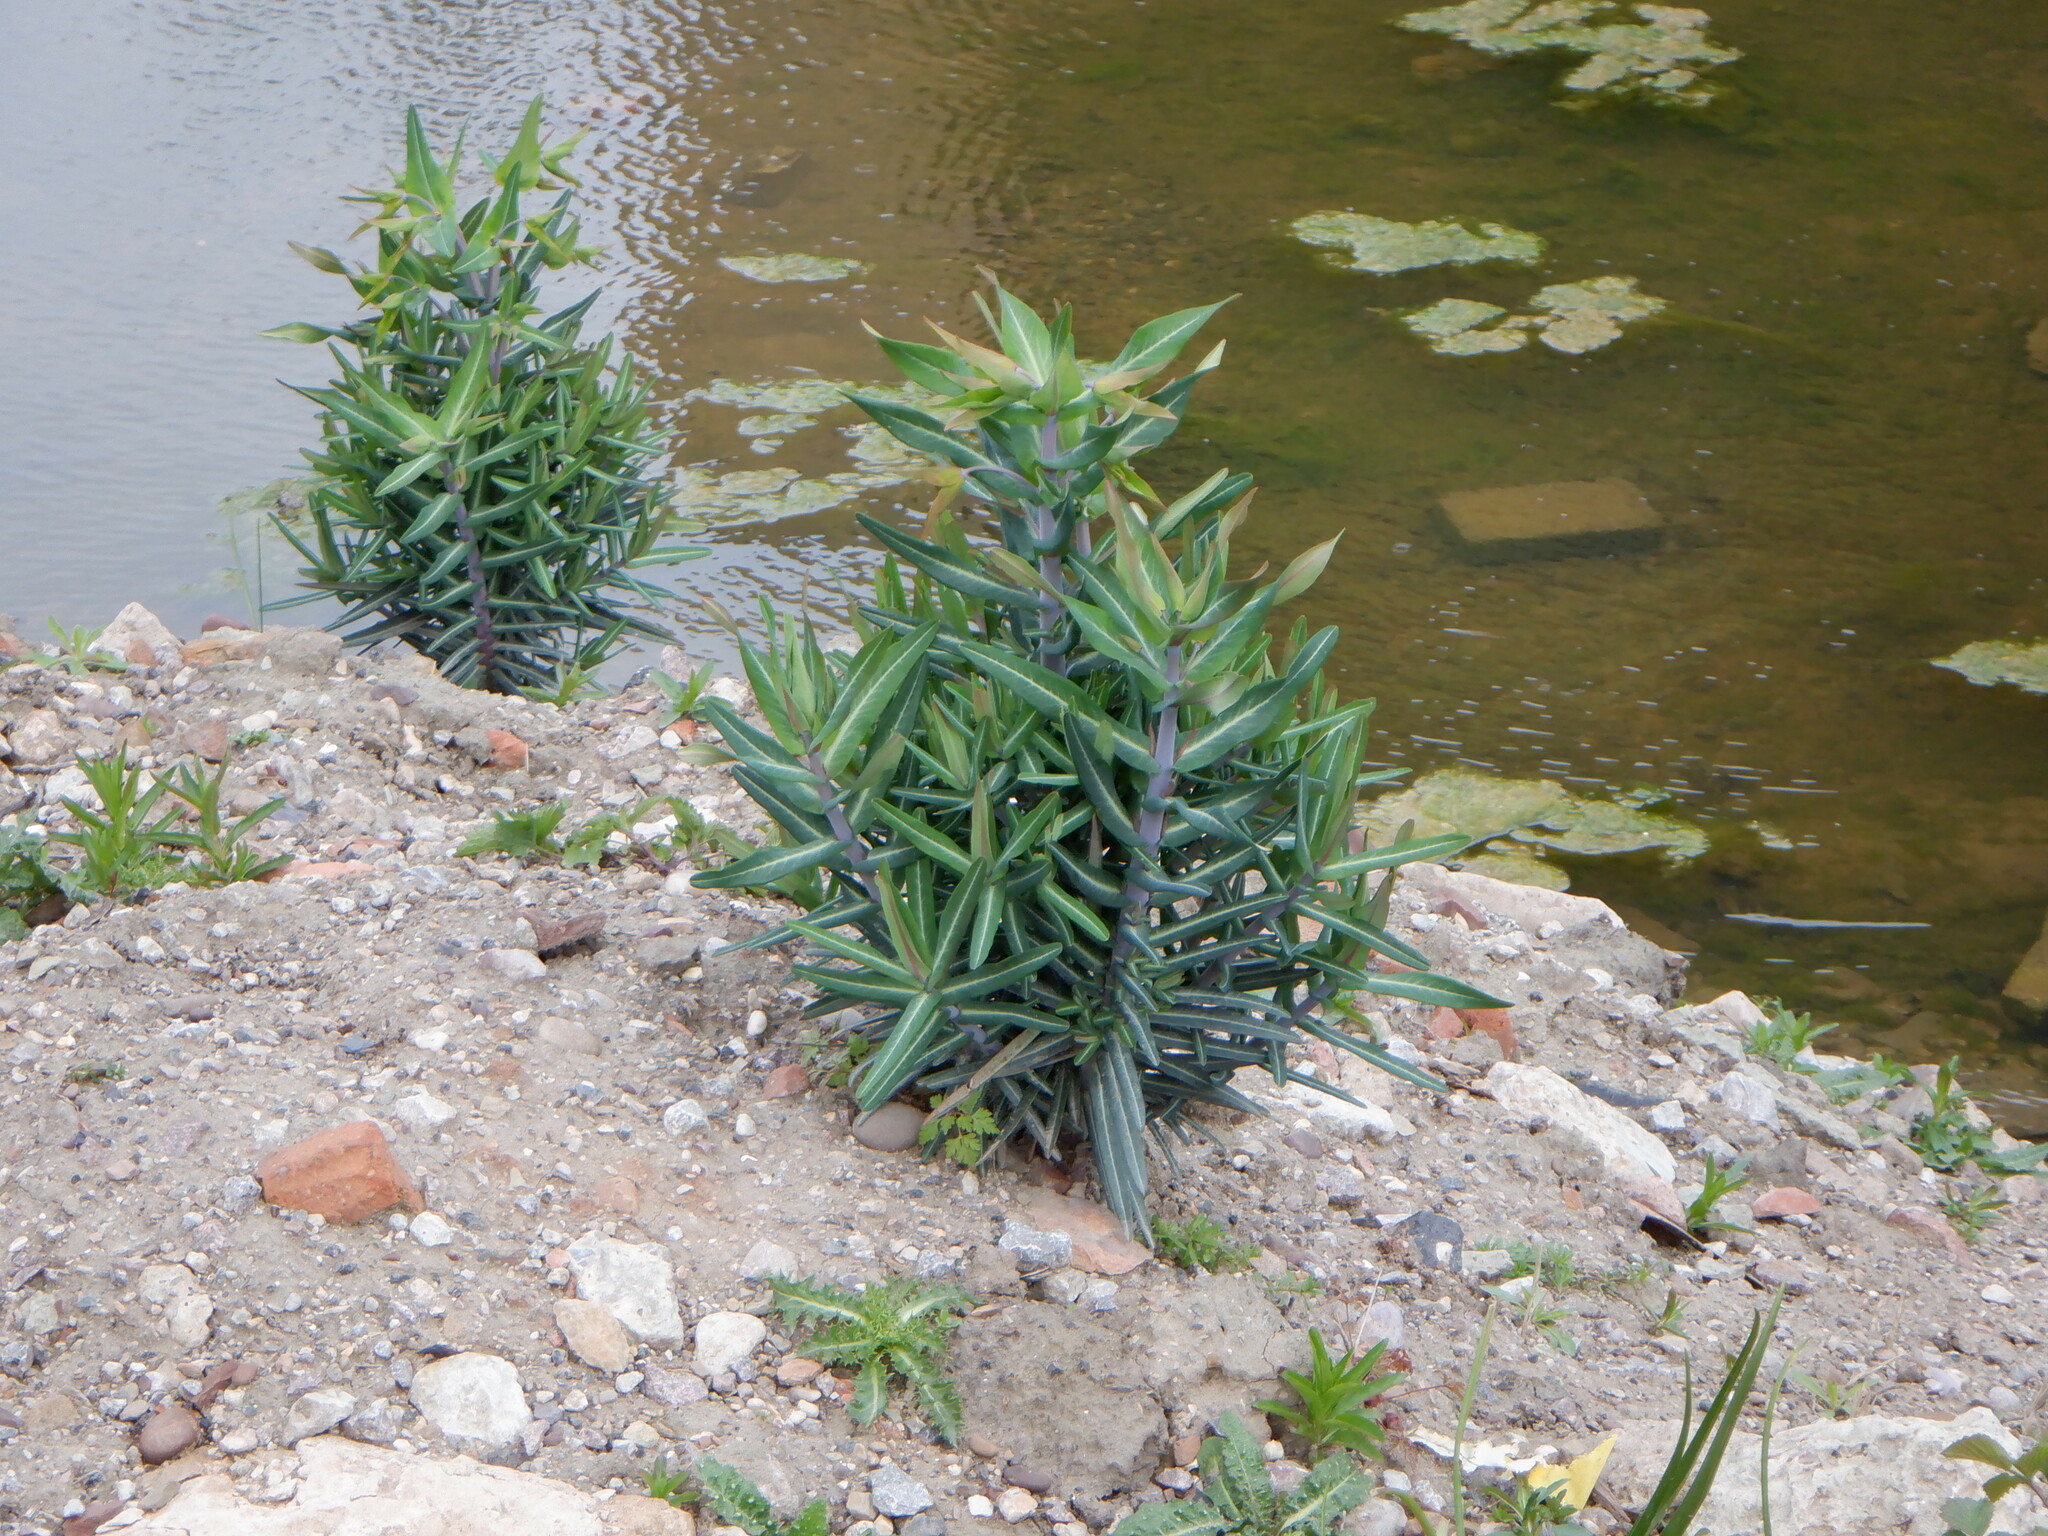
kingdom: Plantae
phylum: Tracheophyta
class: Magnoliopsida
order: Malpighiales
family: Euphorbiaceae
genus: Euphorbia
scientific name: Euphorbia lathyris
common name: Caper spurge
